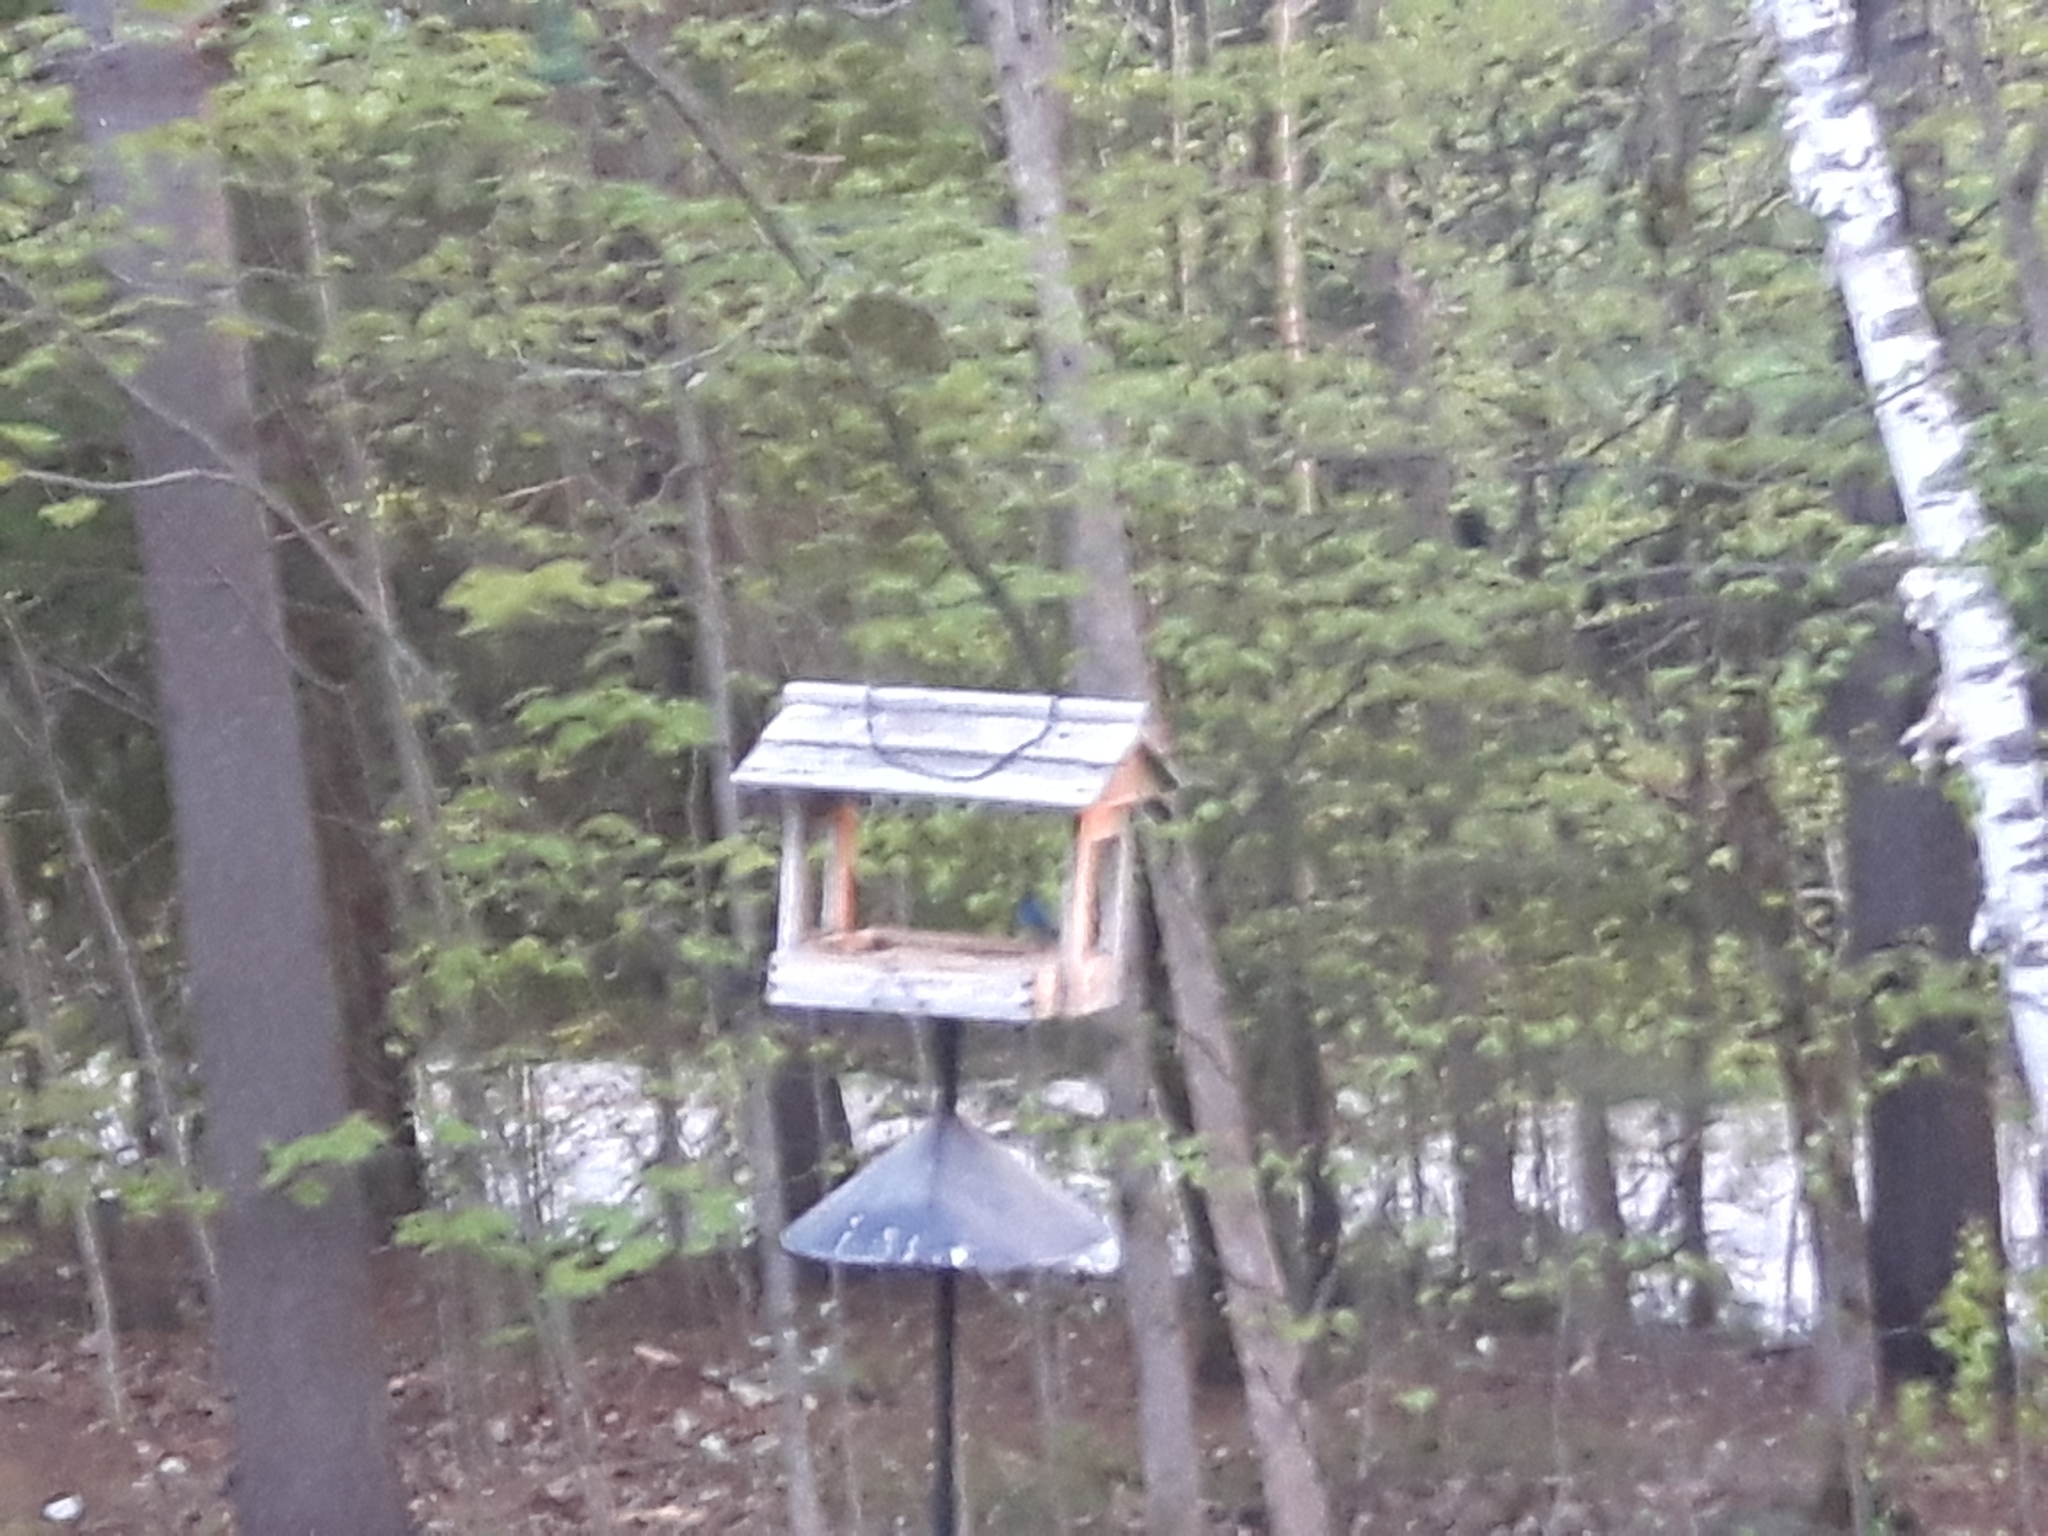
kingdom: Animalia
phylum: Chordata
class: Aves
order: Passeriformes
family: Cardinalidae
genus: Passerina
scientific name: Passerina cyanea
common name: Indigo bunting
